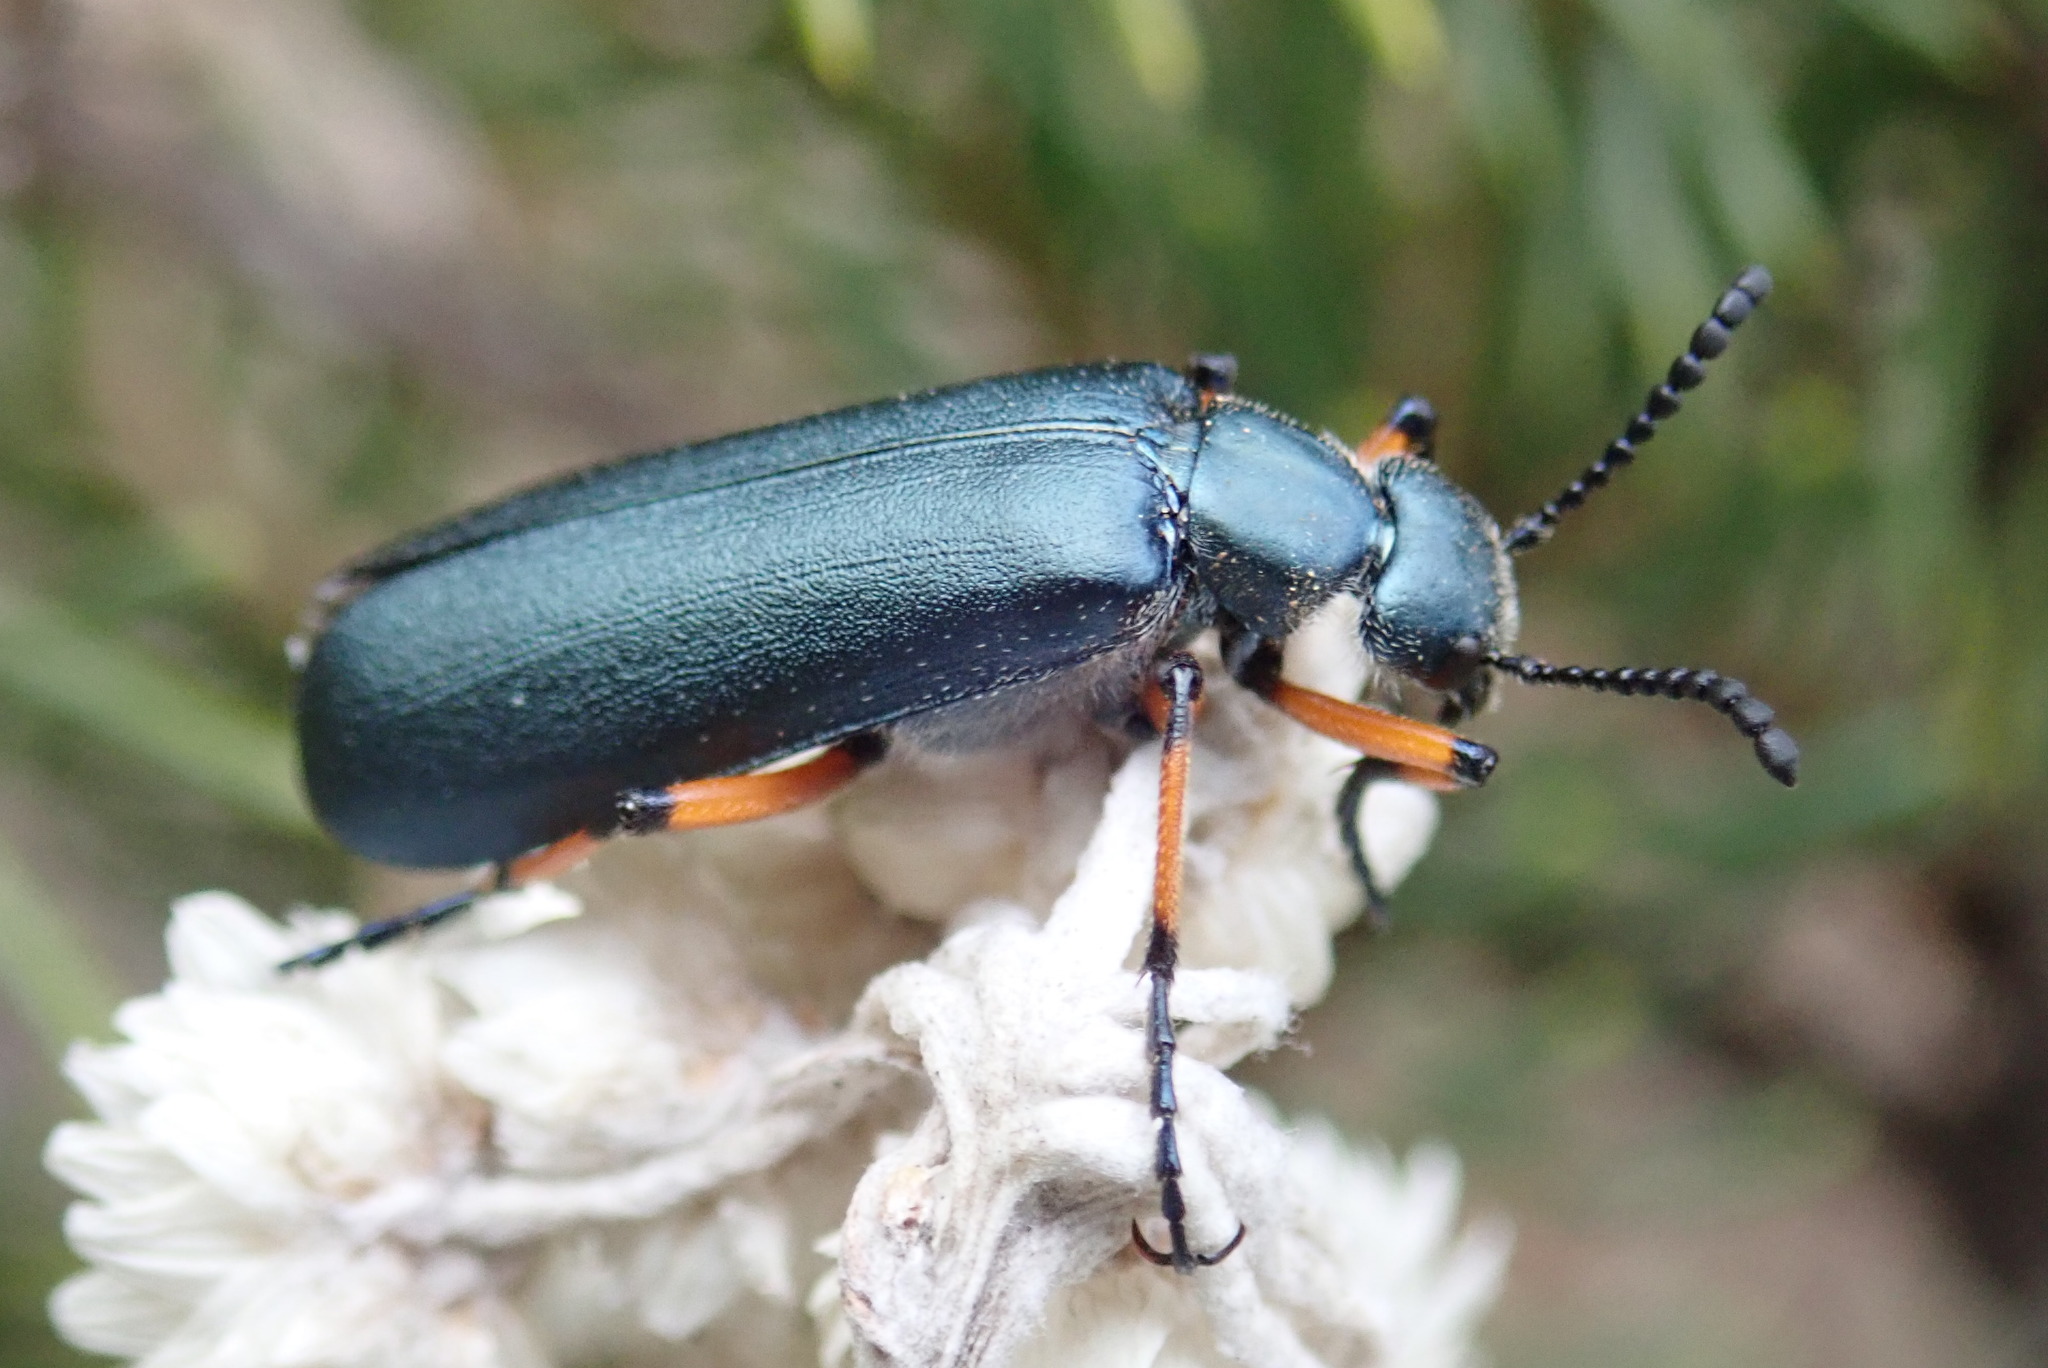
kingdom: Animalia
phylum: Arthropoda
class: Insecta
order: Coleoptera
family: Meloidae
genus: Lytta
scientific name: Lytta sayi
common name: Say's blister beetle
